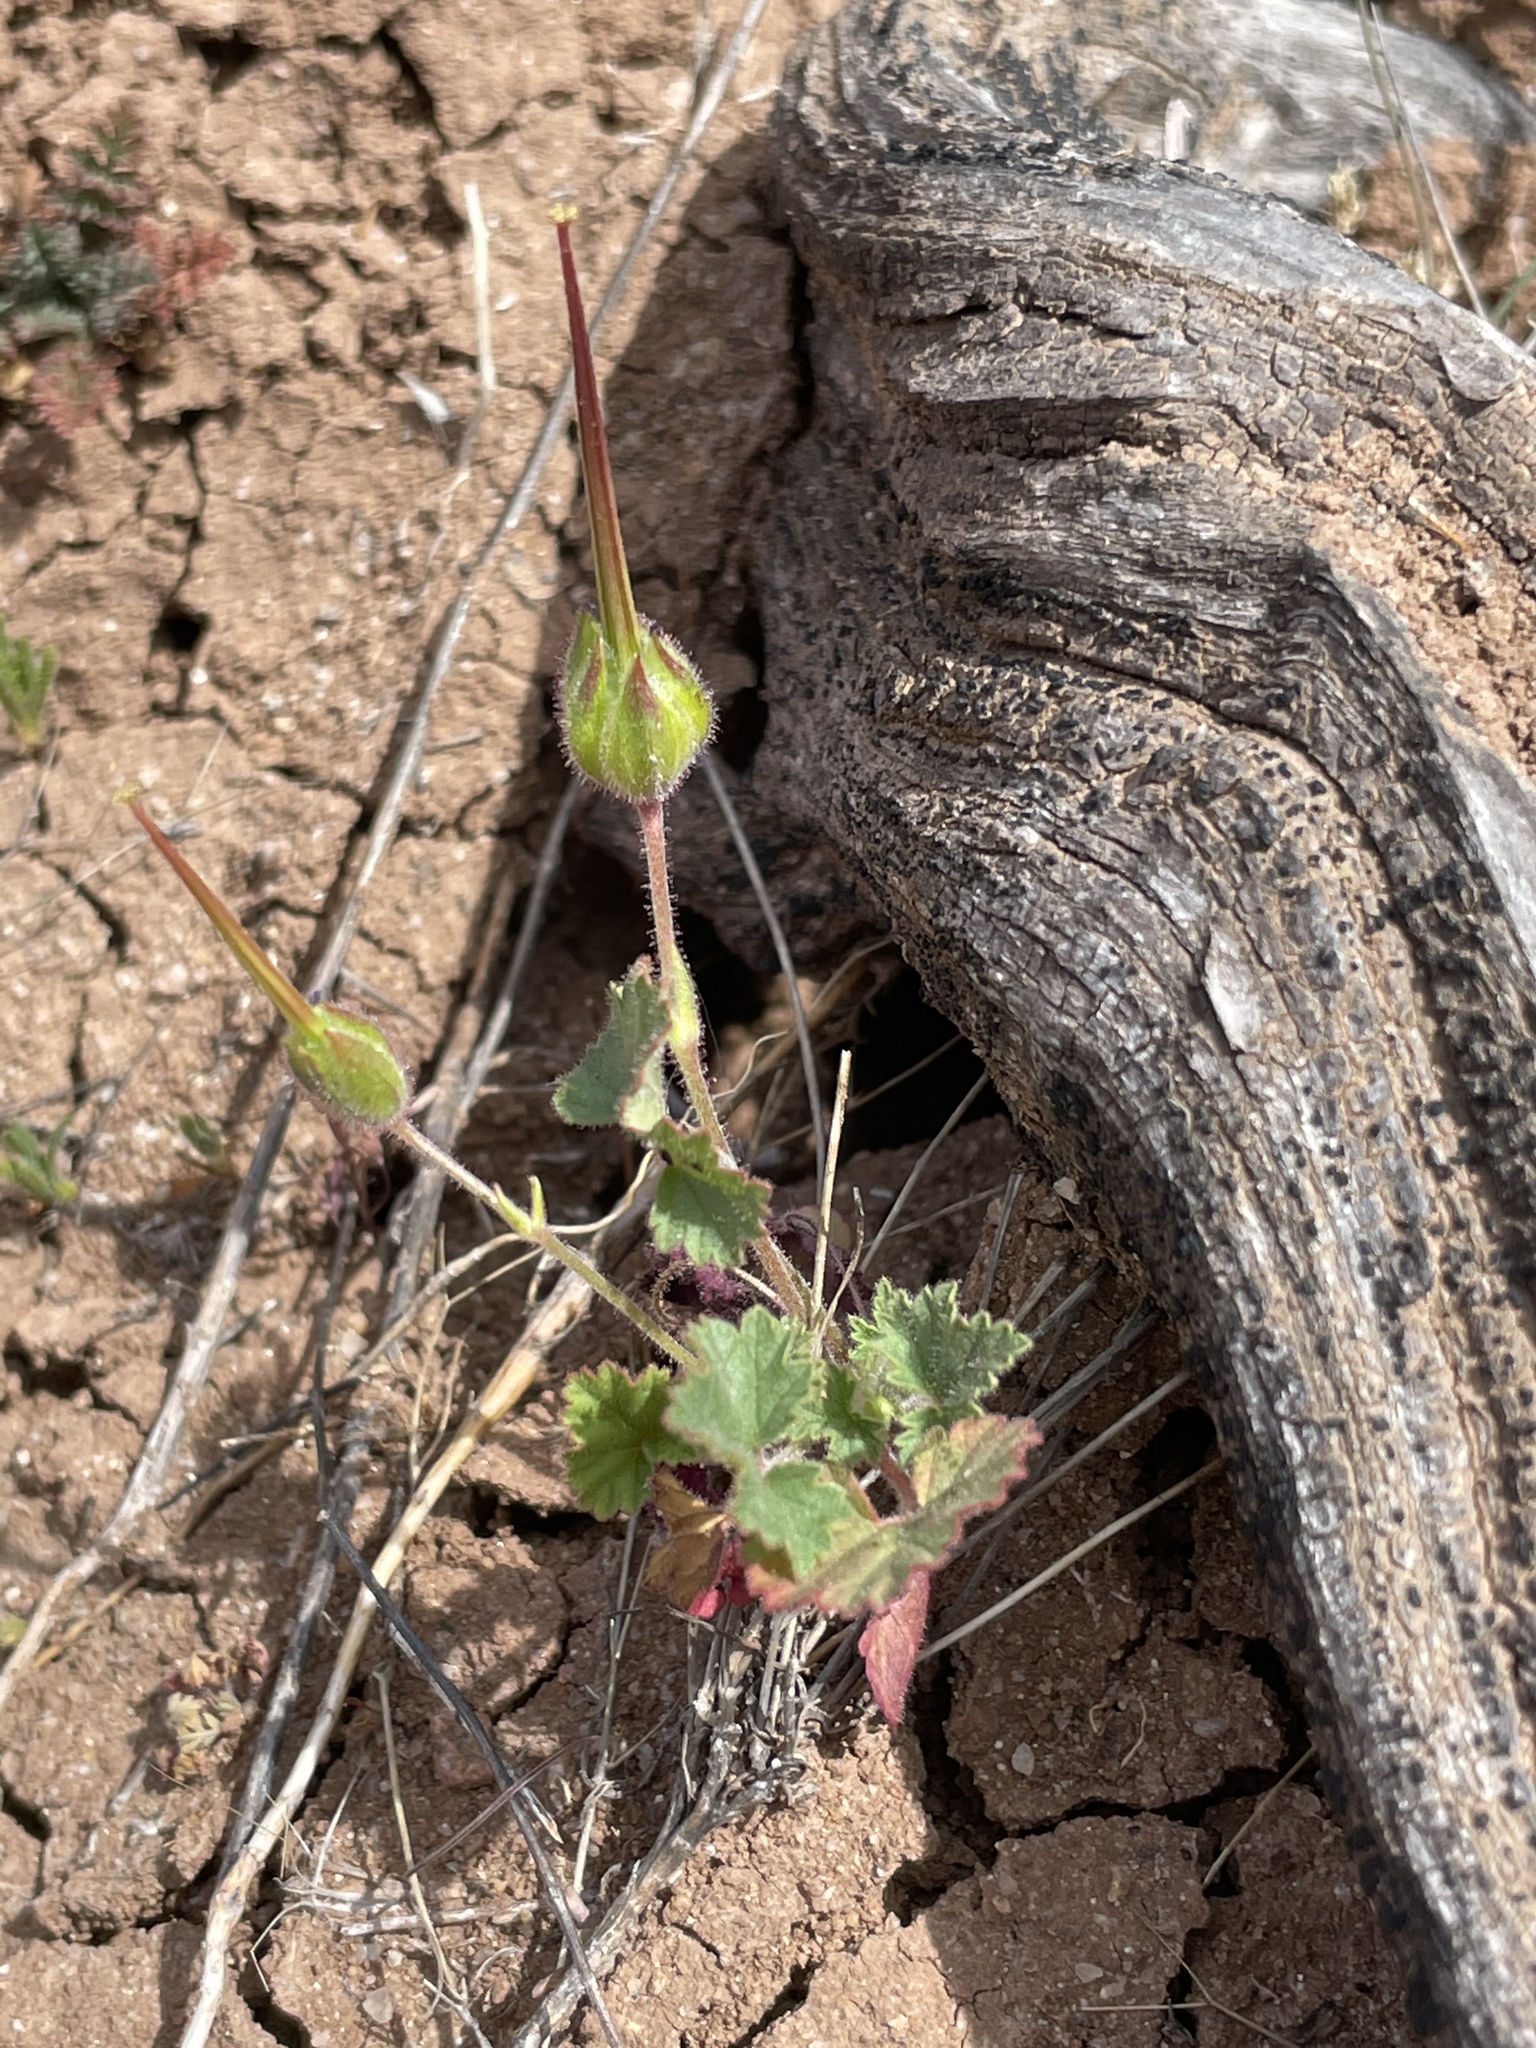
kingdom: Plantae
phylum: Tracheophyta
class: Magnoliopsida
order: Geraniales
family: Geraniaceae
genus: California
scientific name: California macrophylla
